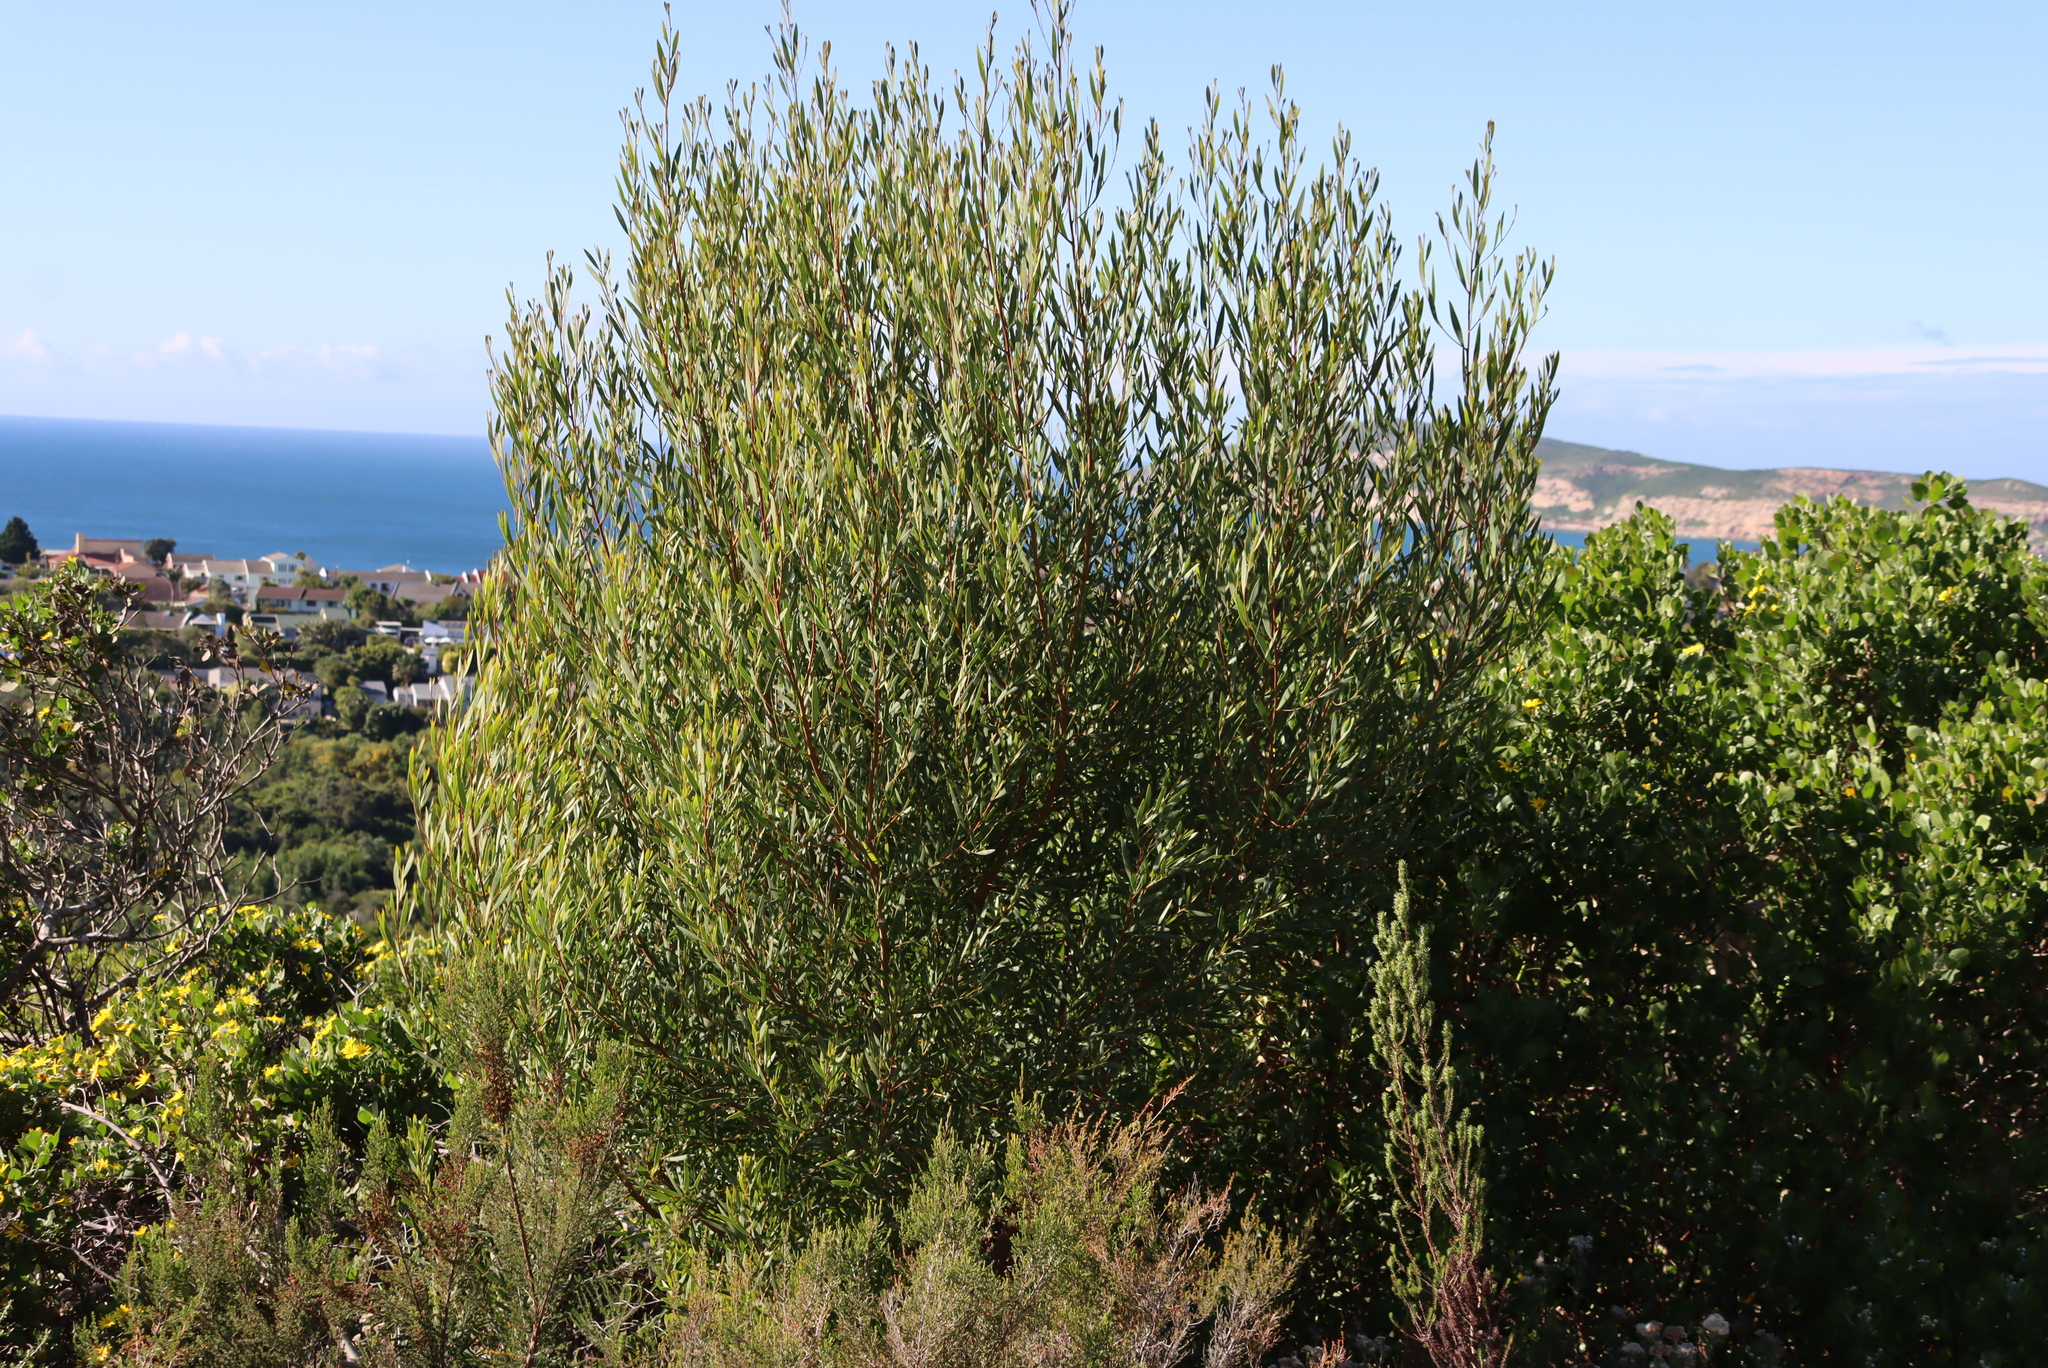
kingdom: Plantae
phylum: Tracheophyta
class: Magnoliopsida
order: Fabales
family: Fabaceae
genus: Acacia
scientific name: Acacia cyclops
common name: Coastal wattle
